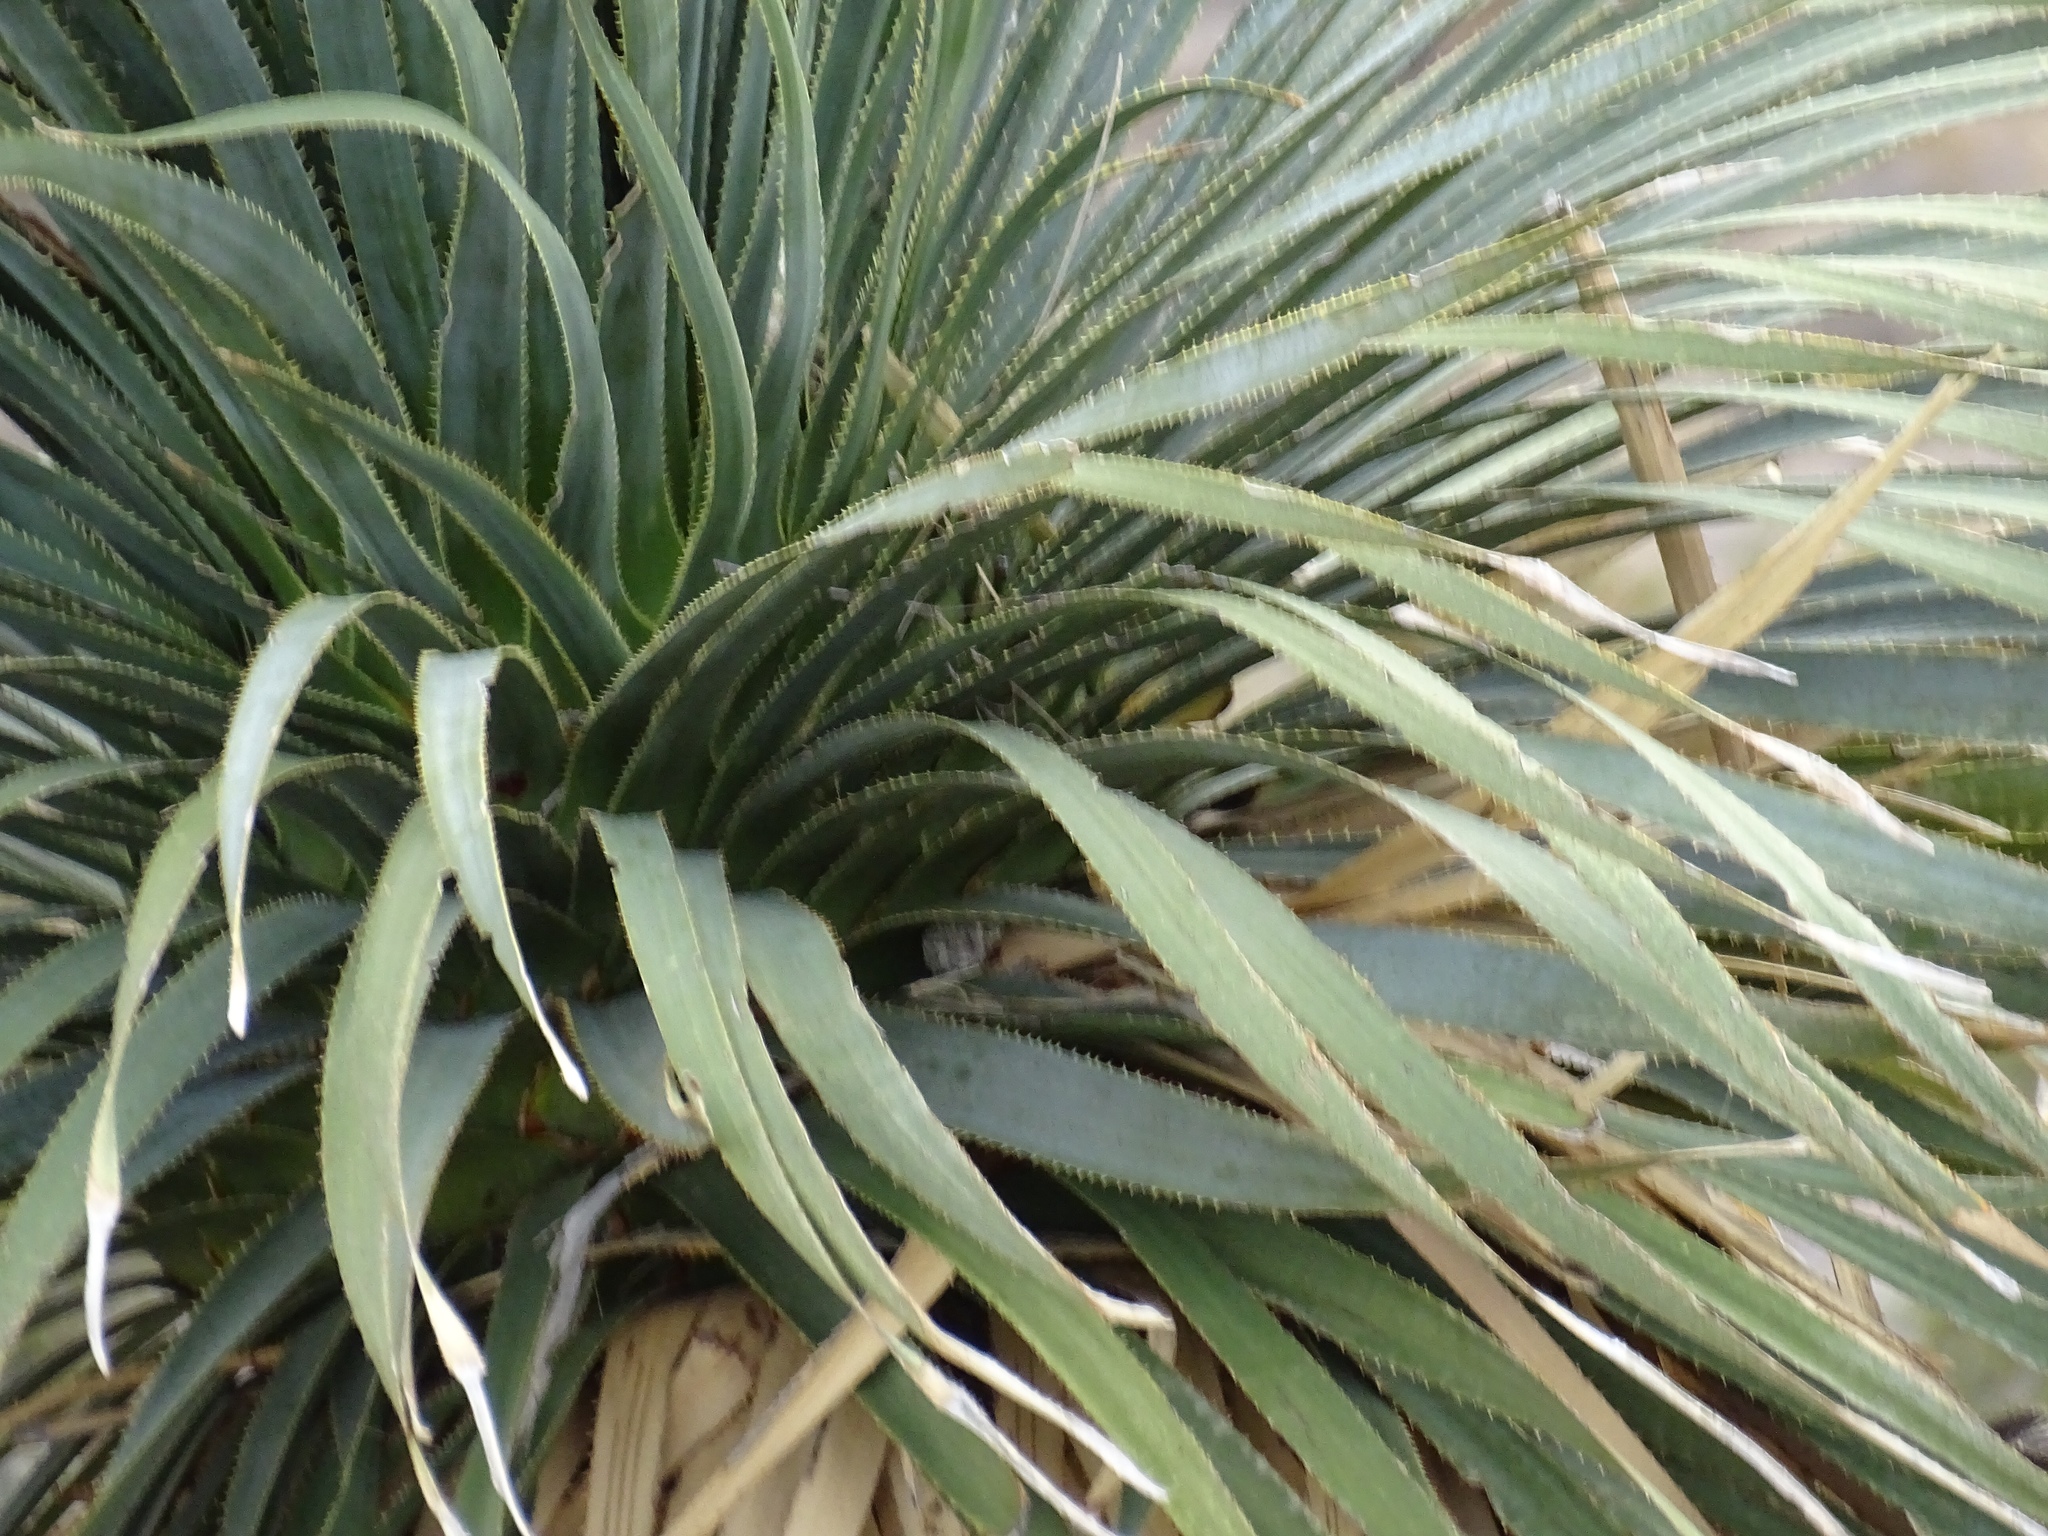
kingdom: Plantae
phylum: Tracheophyta
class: Liliopsida
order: Asparagales
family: Asparagaceae
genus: Dasylirion
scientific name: Dasylirion wheeleri
